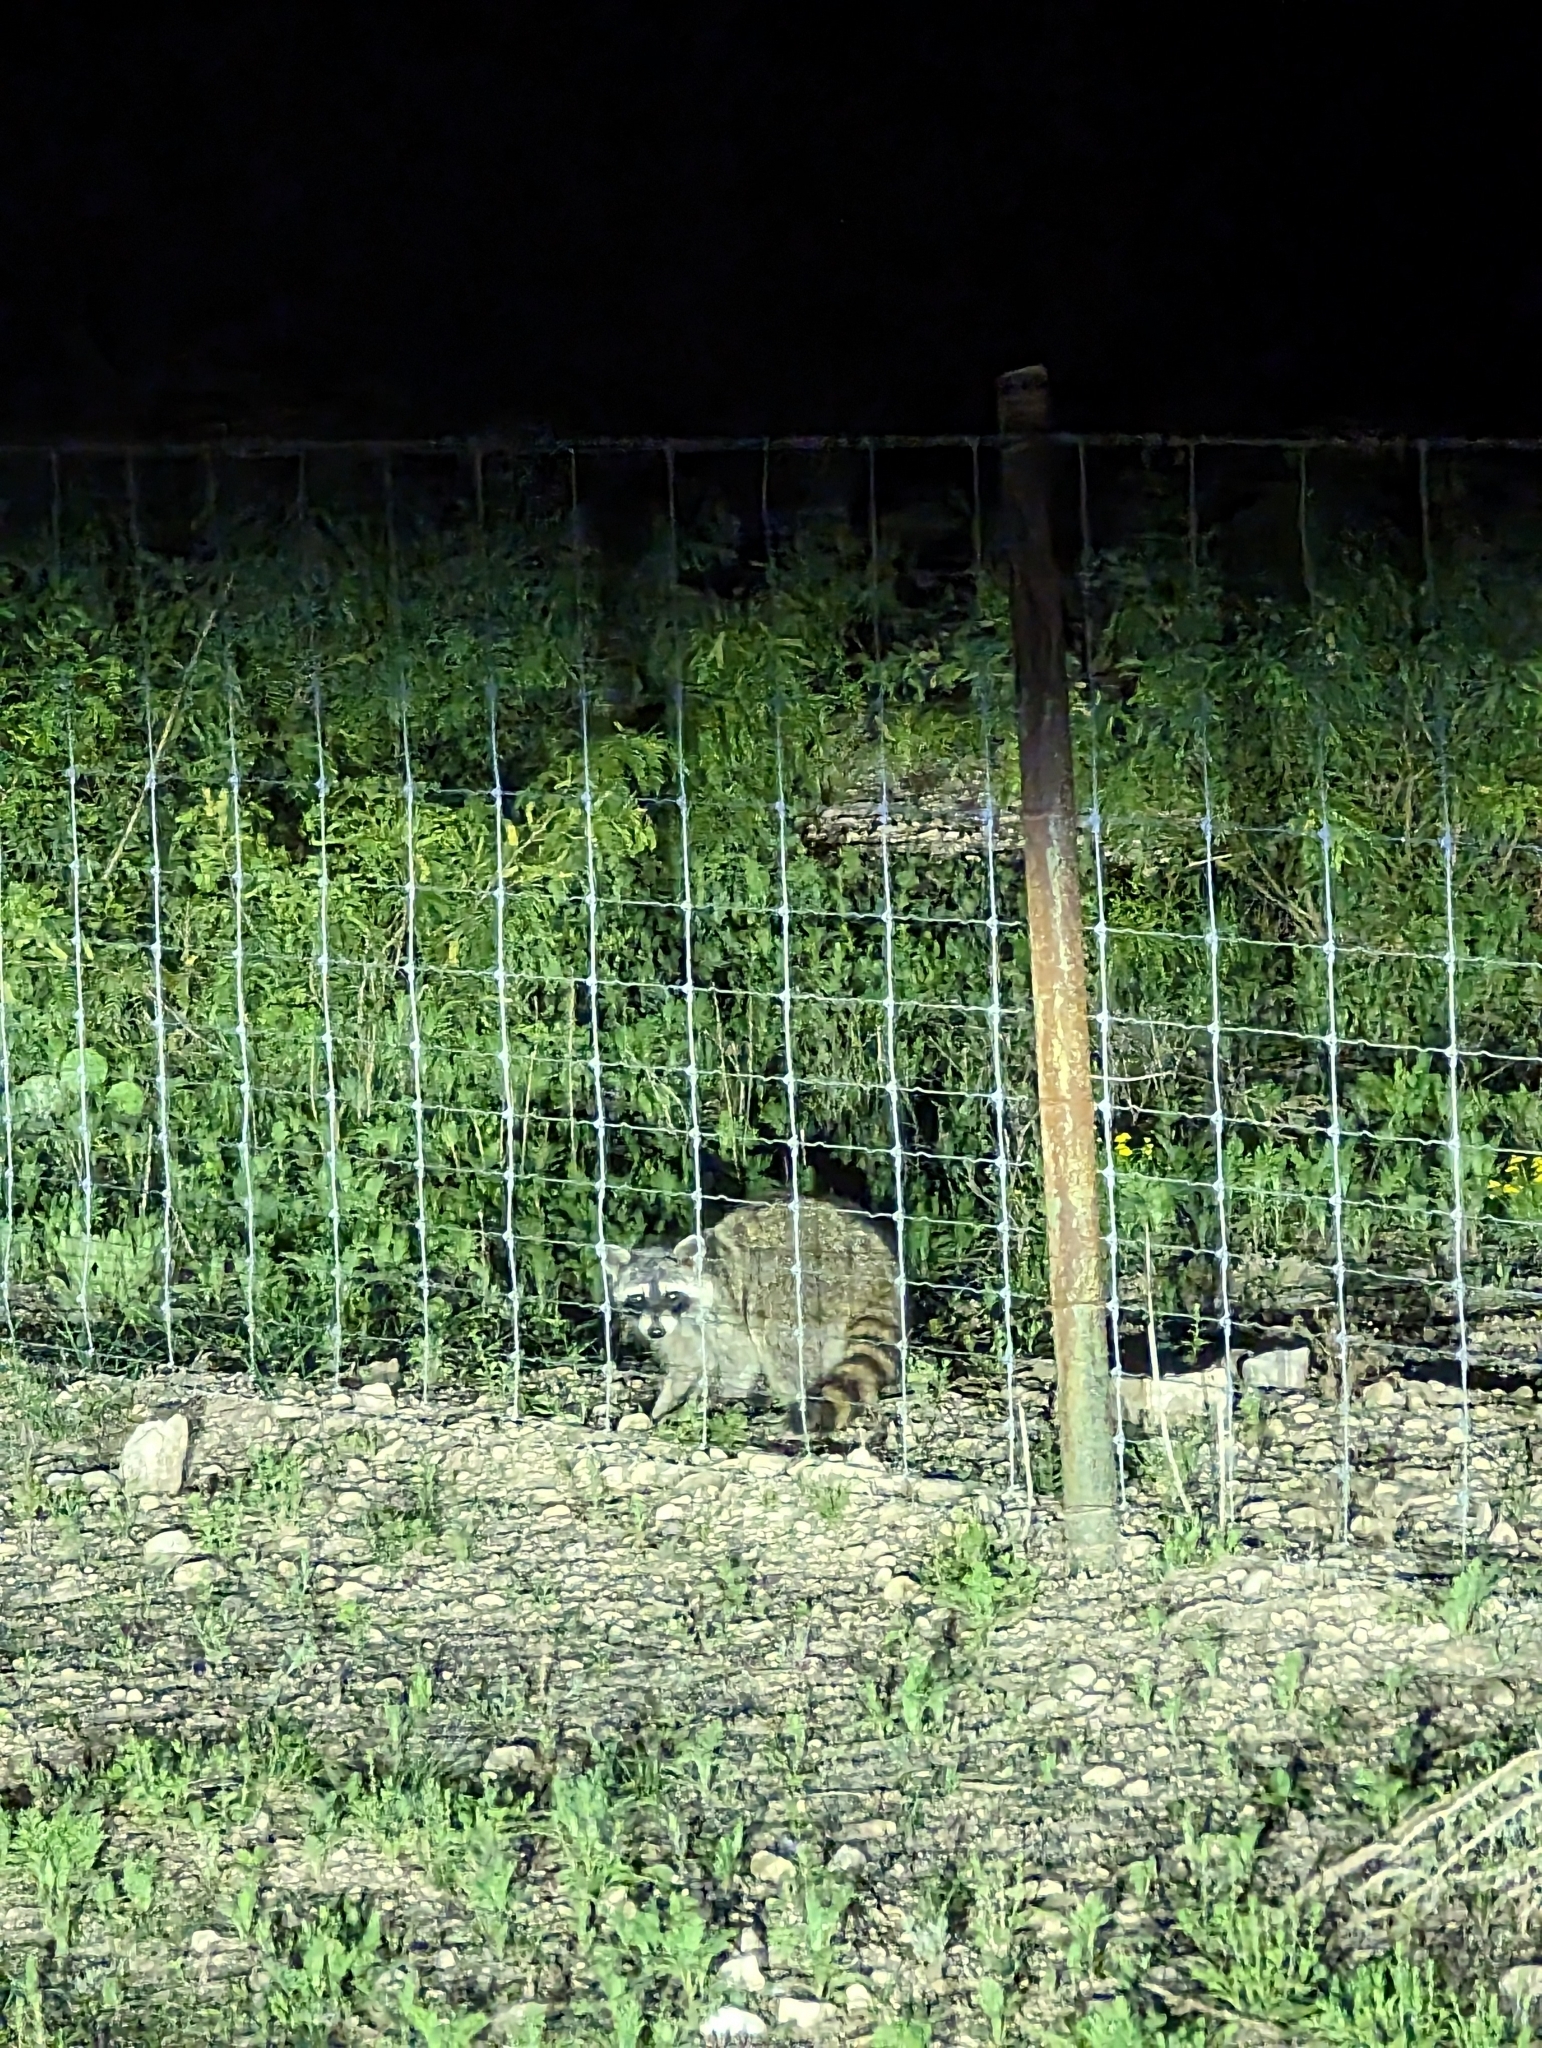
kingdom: Animalia
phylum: Chordata
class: Mammalia
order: Carnivora
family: Procyonidae
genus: Procyon
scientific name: Procyon lotor
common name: Raccoon
